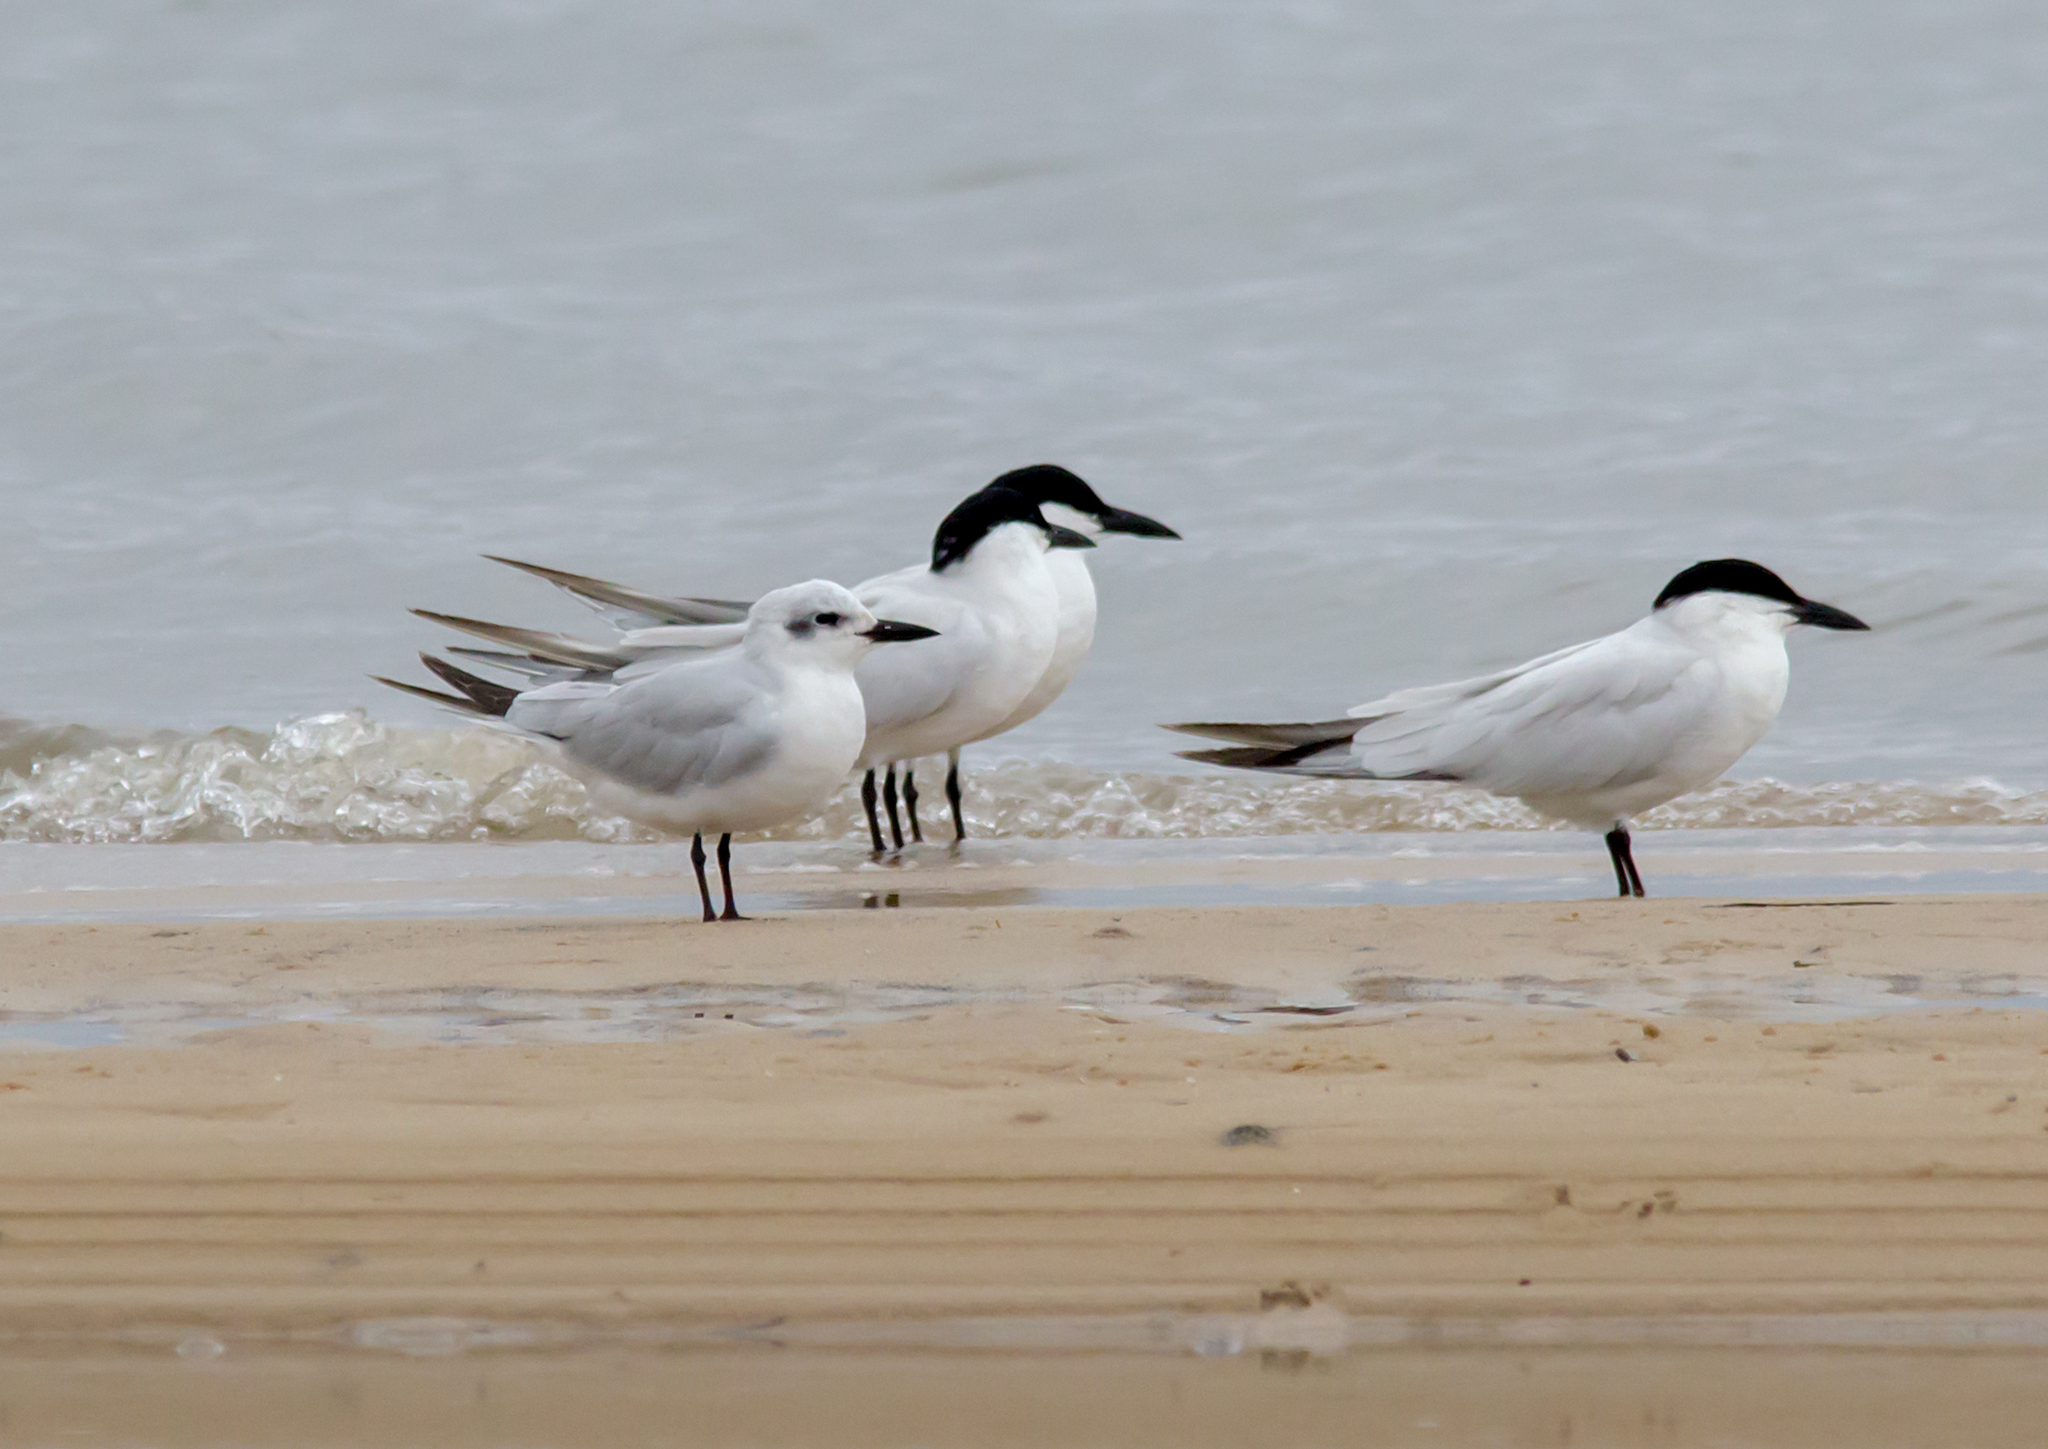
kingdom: Animalia
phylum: Chordata
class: Aves
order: Charadriiformes
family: Laridae
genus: Gelochelidon
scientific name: Gelochelidon nilotica
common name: Gull-billed tern
